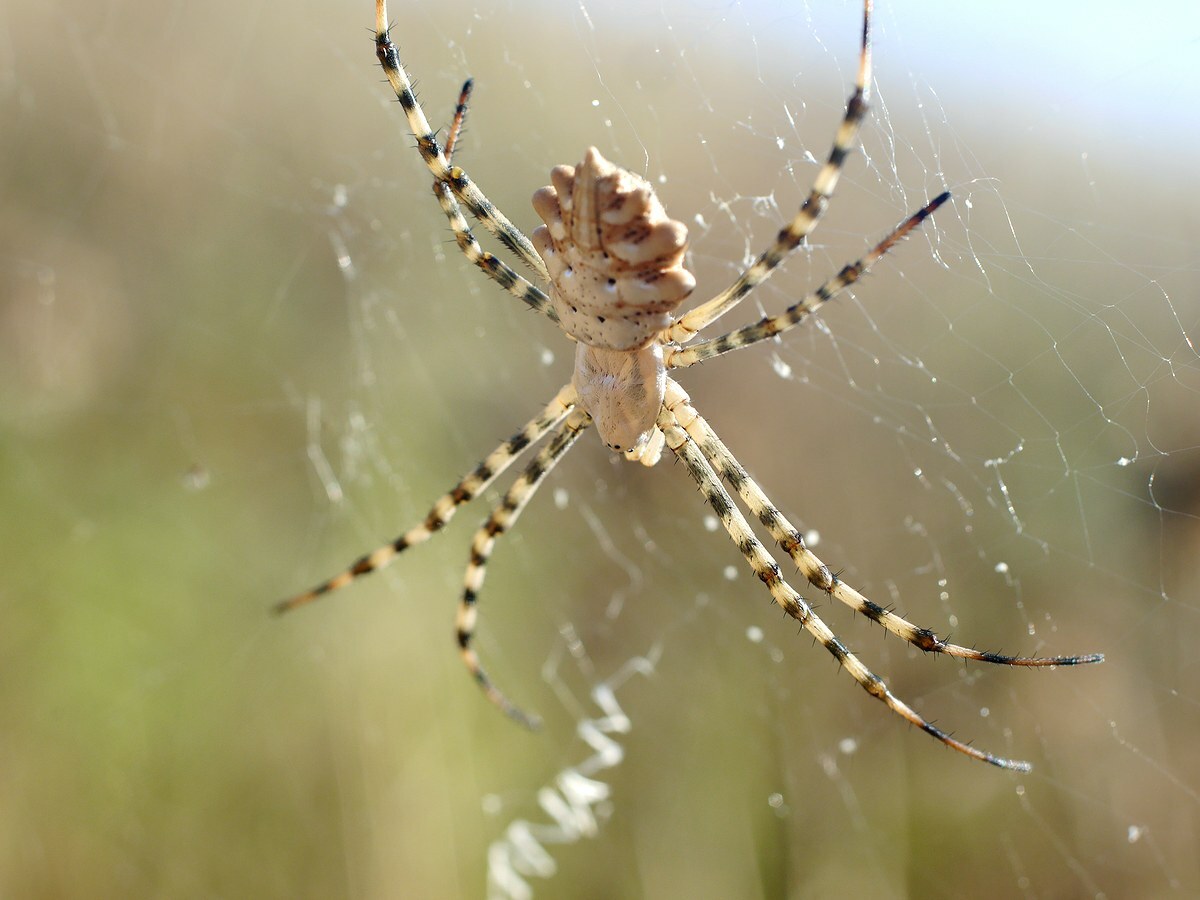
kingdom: Animalia
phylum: Arthropoda
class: Arachnida
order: Araneae
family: Araneidae
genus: Argiope
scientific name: Argiope lobata
